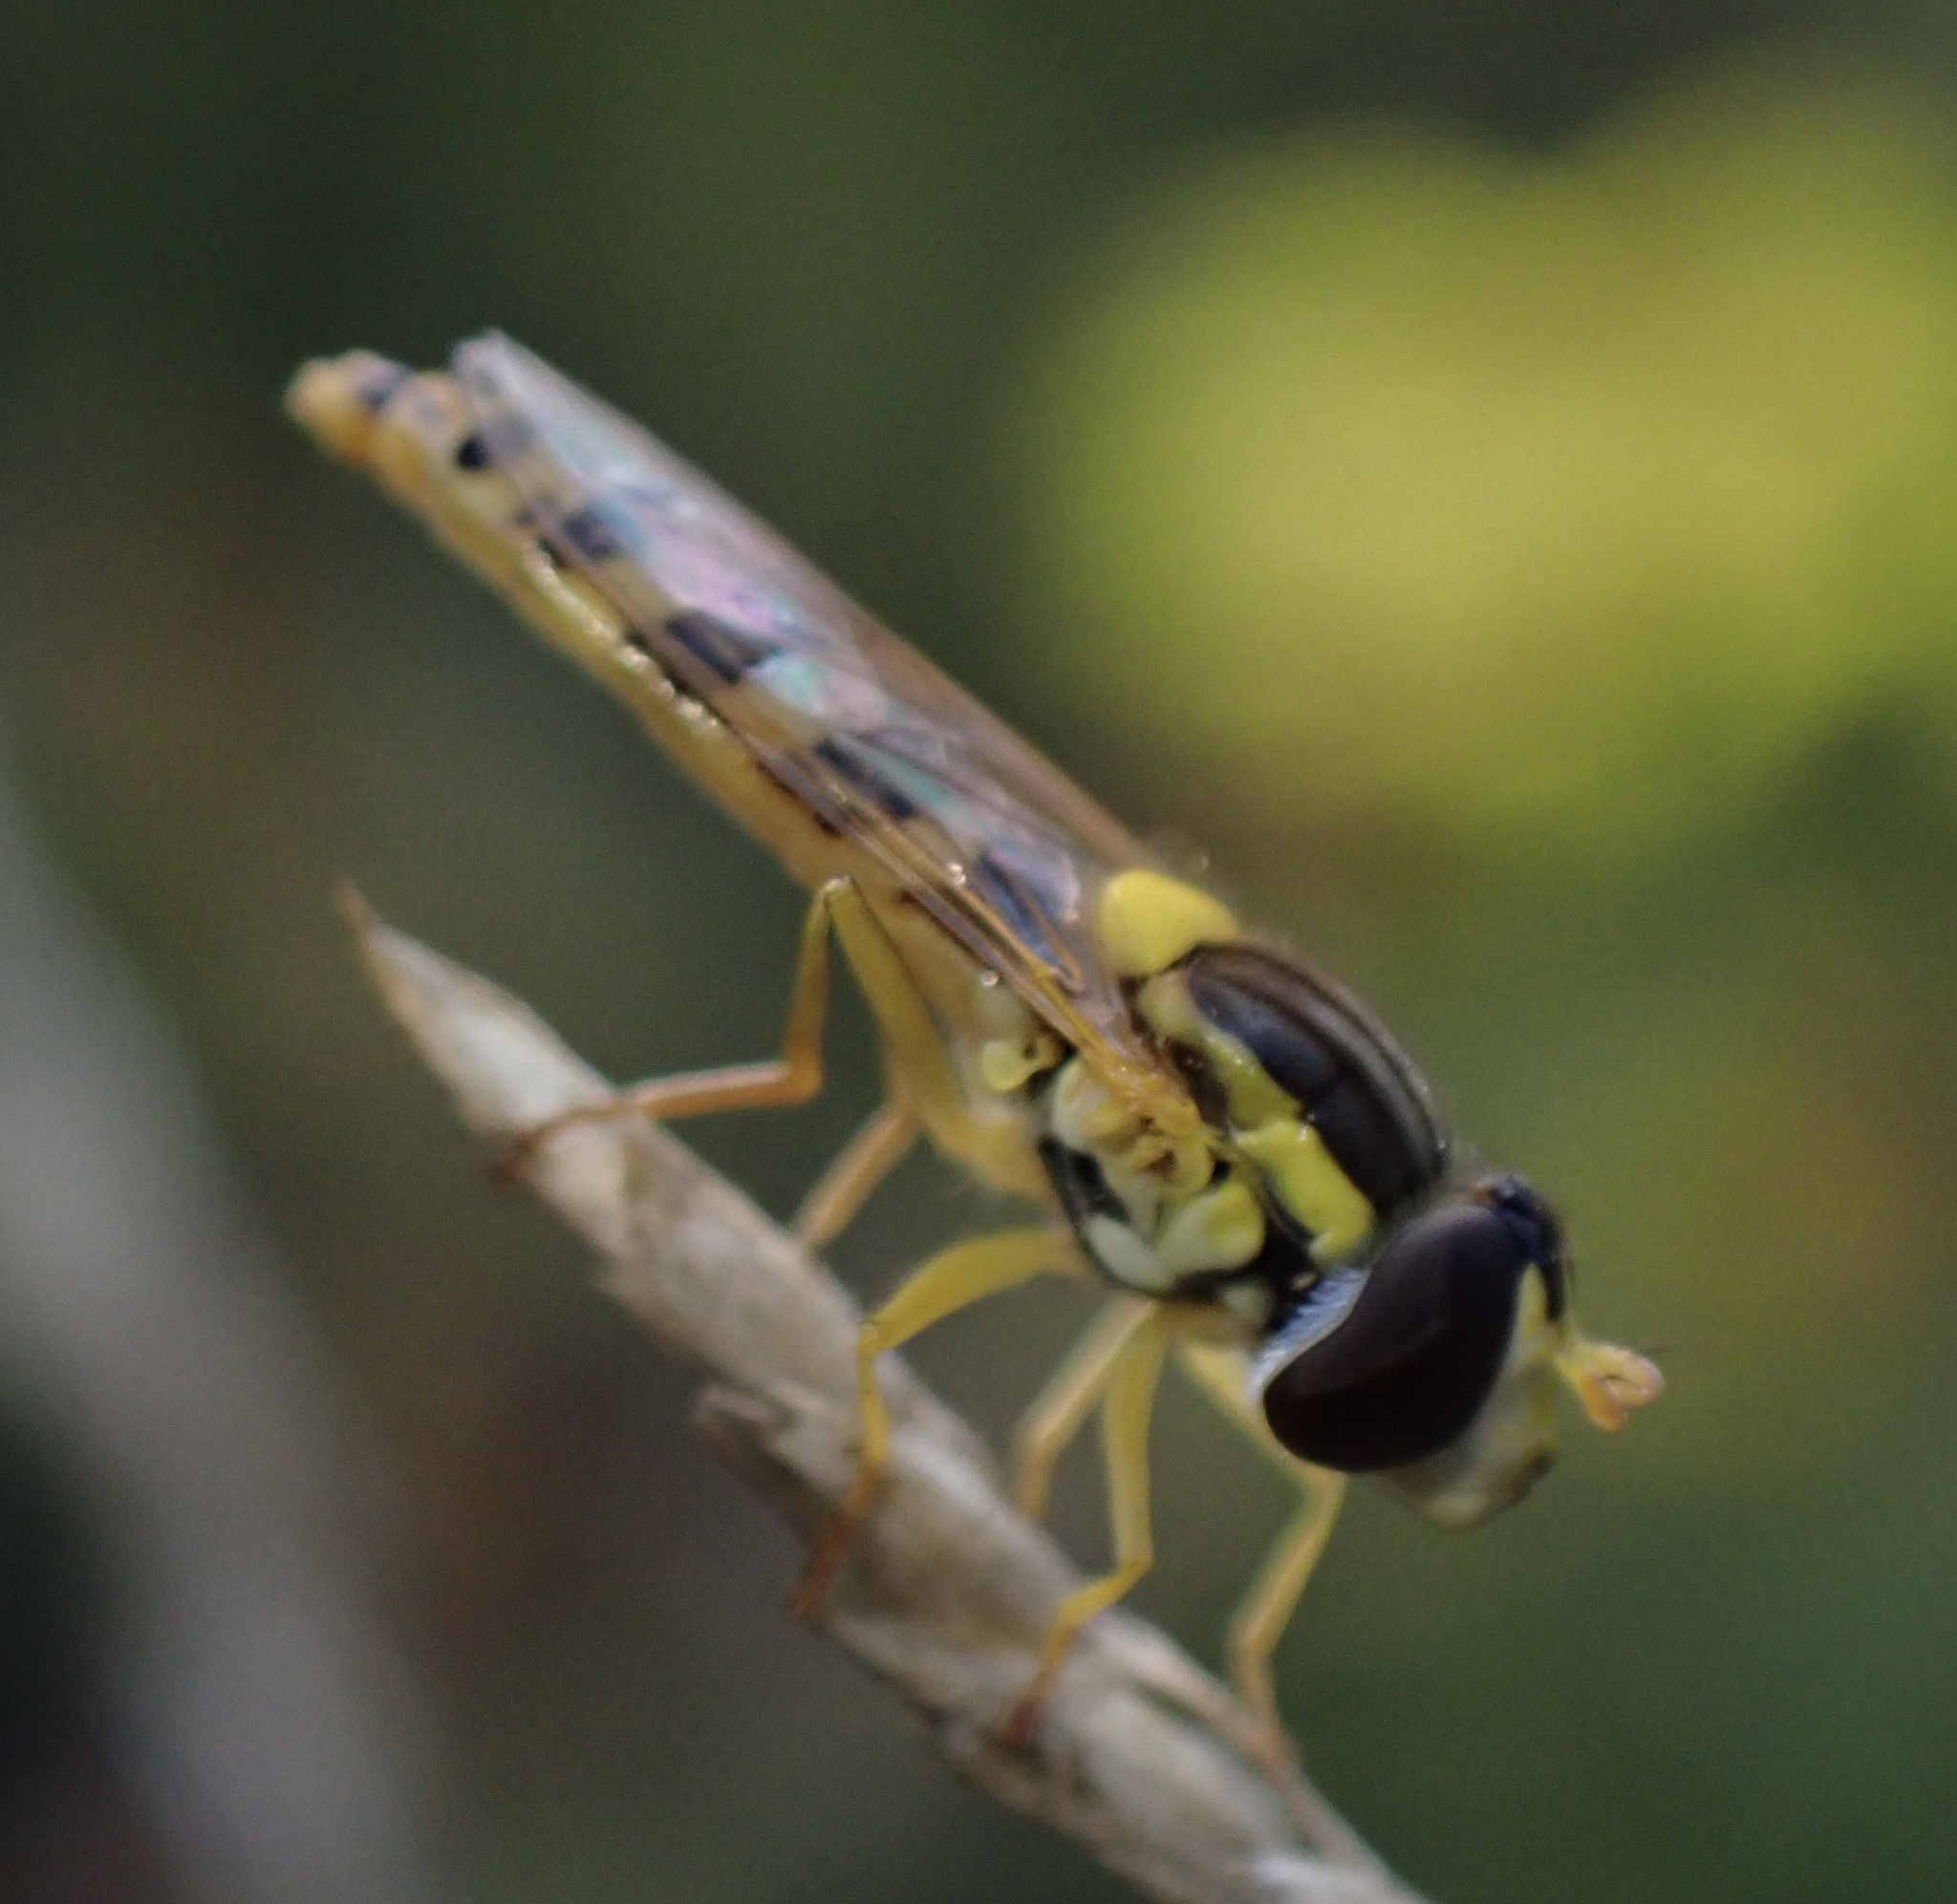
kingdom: Animalia
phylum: Arthropoda
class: Insecta
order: Diptera
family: Syrphidae
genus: Sphaerophoria
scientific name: Sphaerophoria
